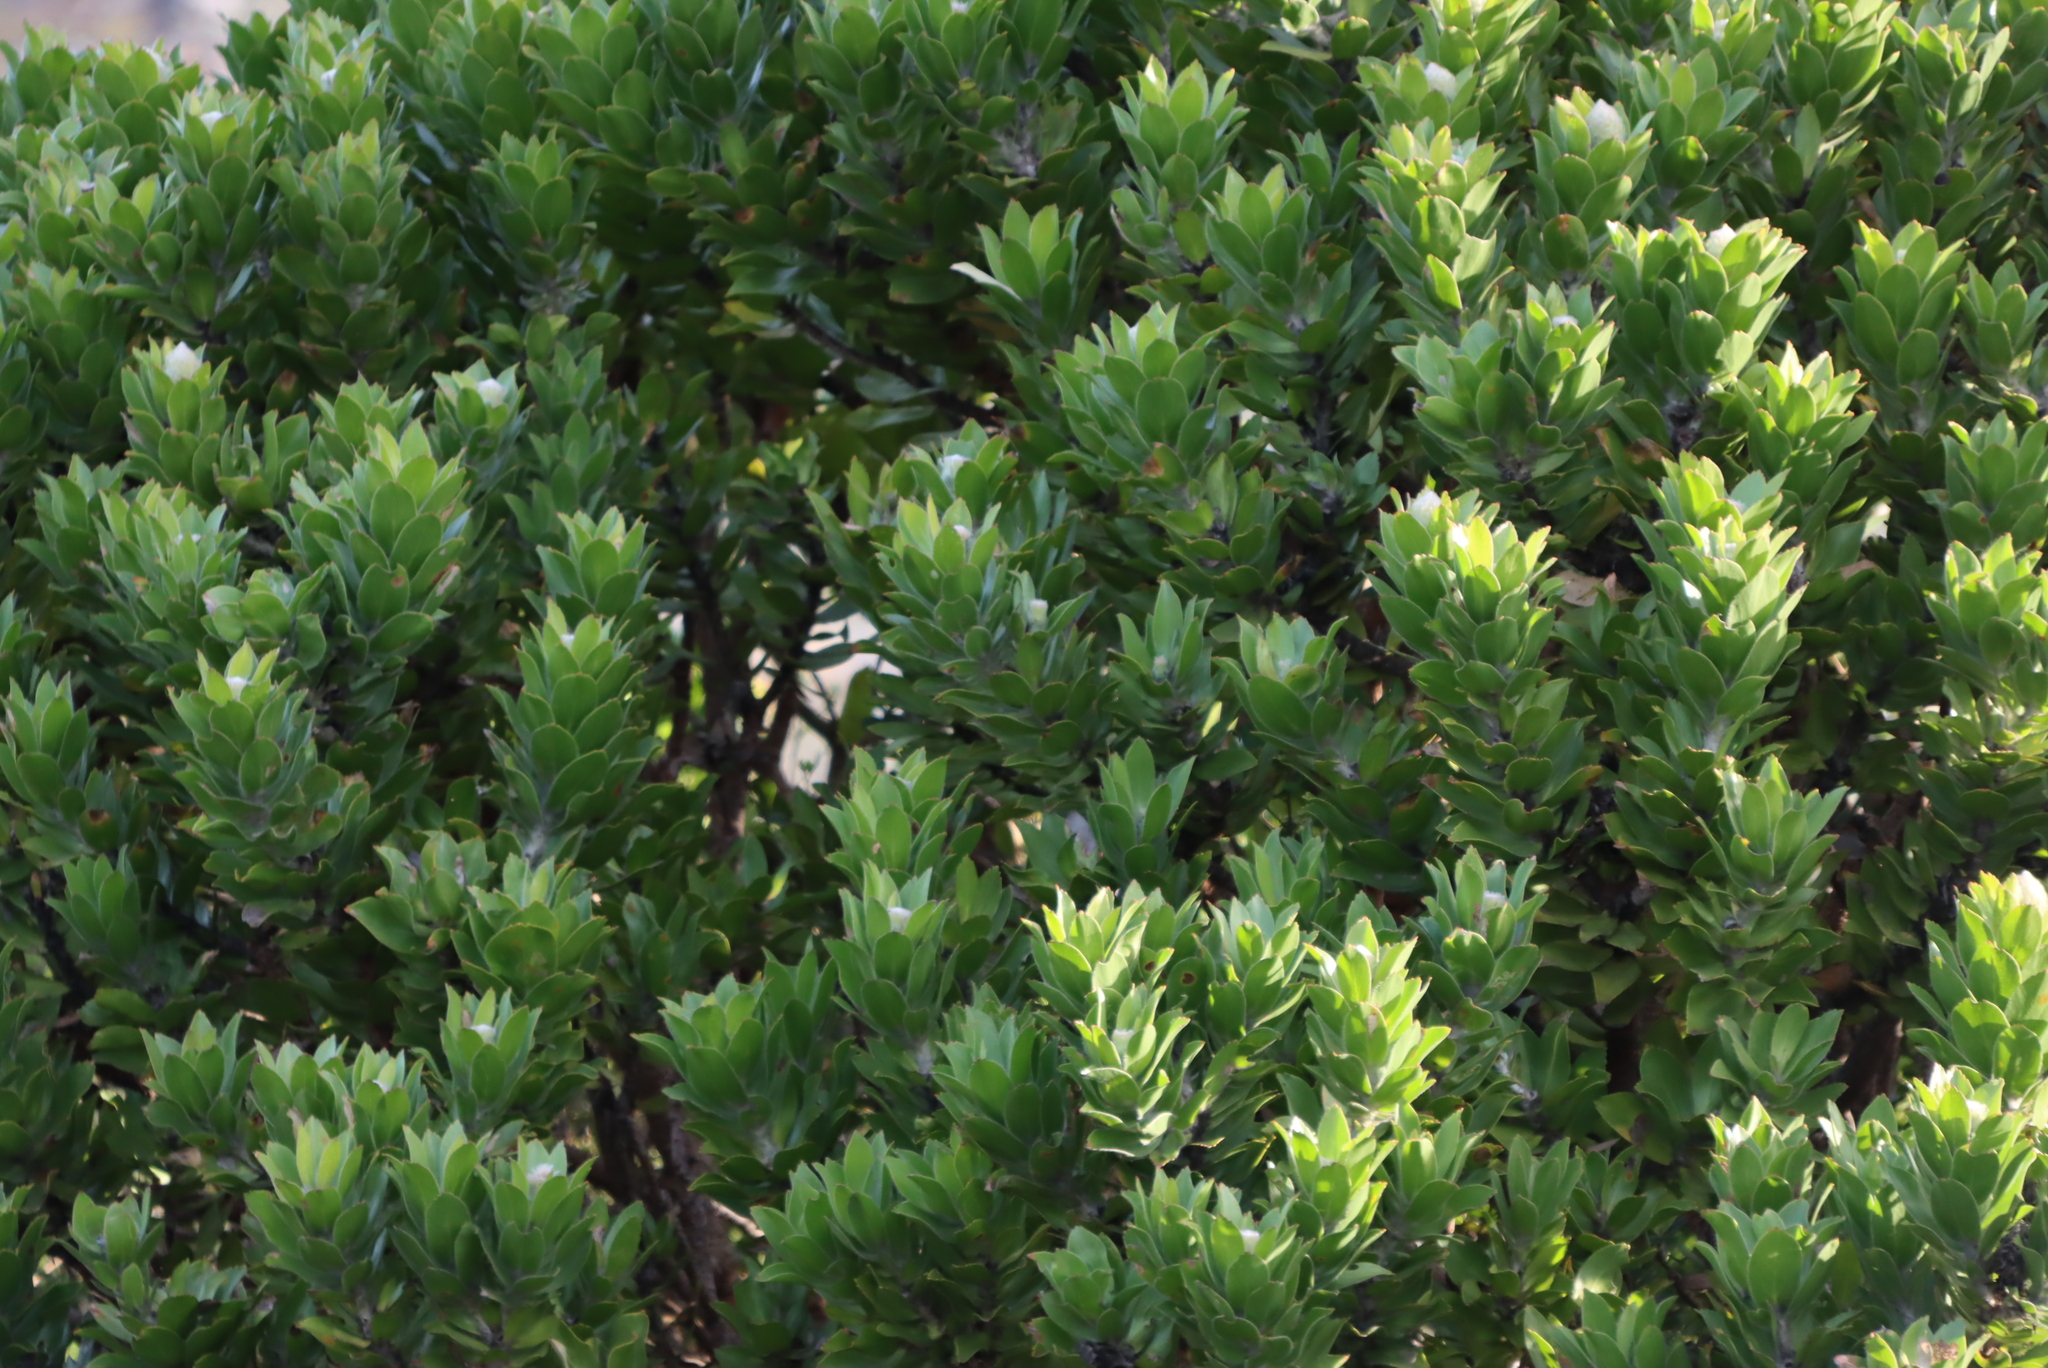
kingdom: Plantae
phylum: Tracheophyta
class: Magnoliopsida
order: Proteales
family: Proteaceae
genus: Leucospermum
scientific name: Leucospermum conocarpodendron
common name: Tree pincushion
